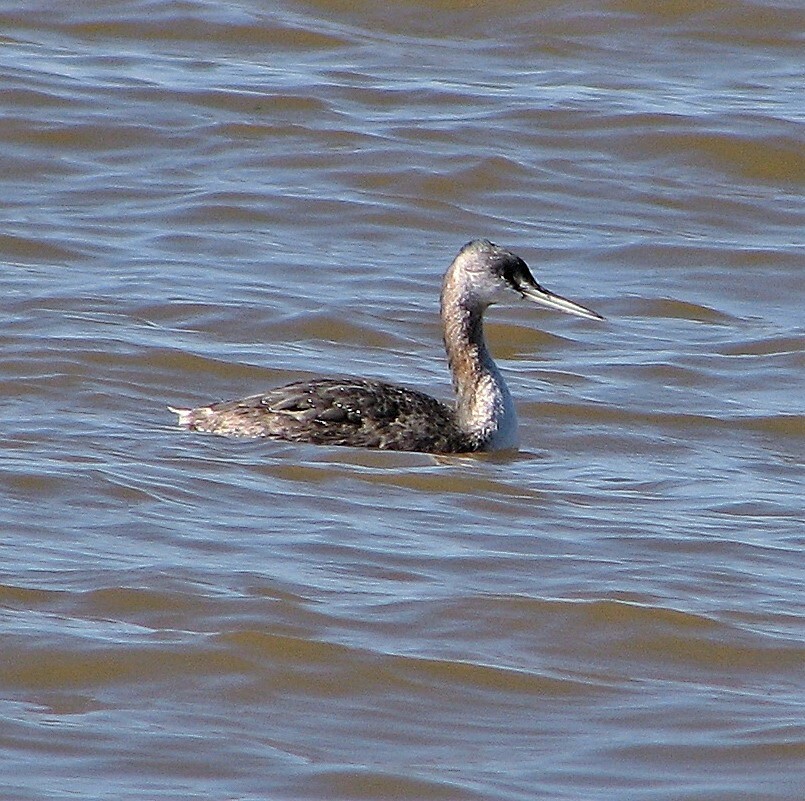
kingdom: Animalia
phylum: Chordata
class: Aves
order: Podicipediformes
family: Podicipedidae
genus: Podiceps
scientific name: Podiceps major
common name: Great grebe
